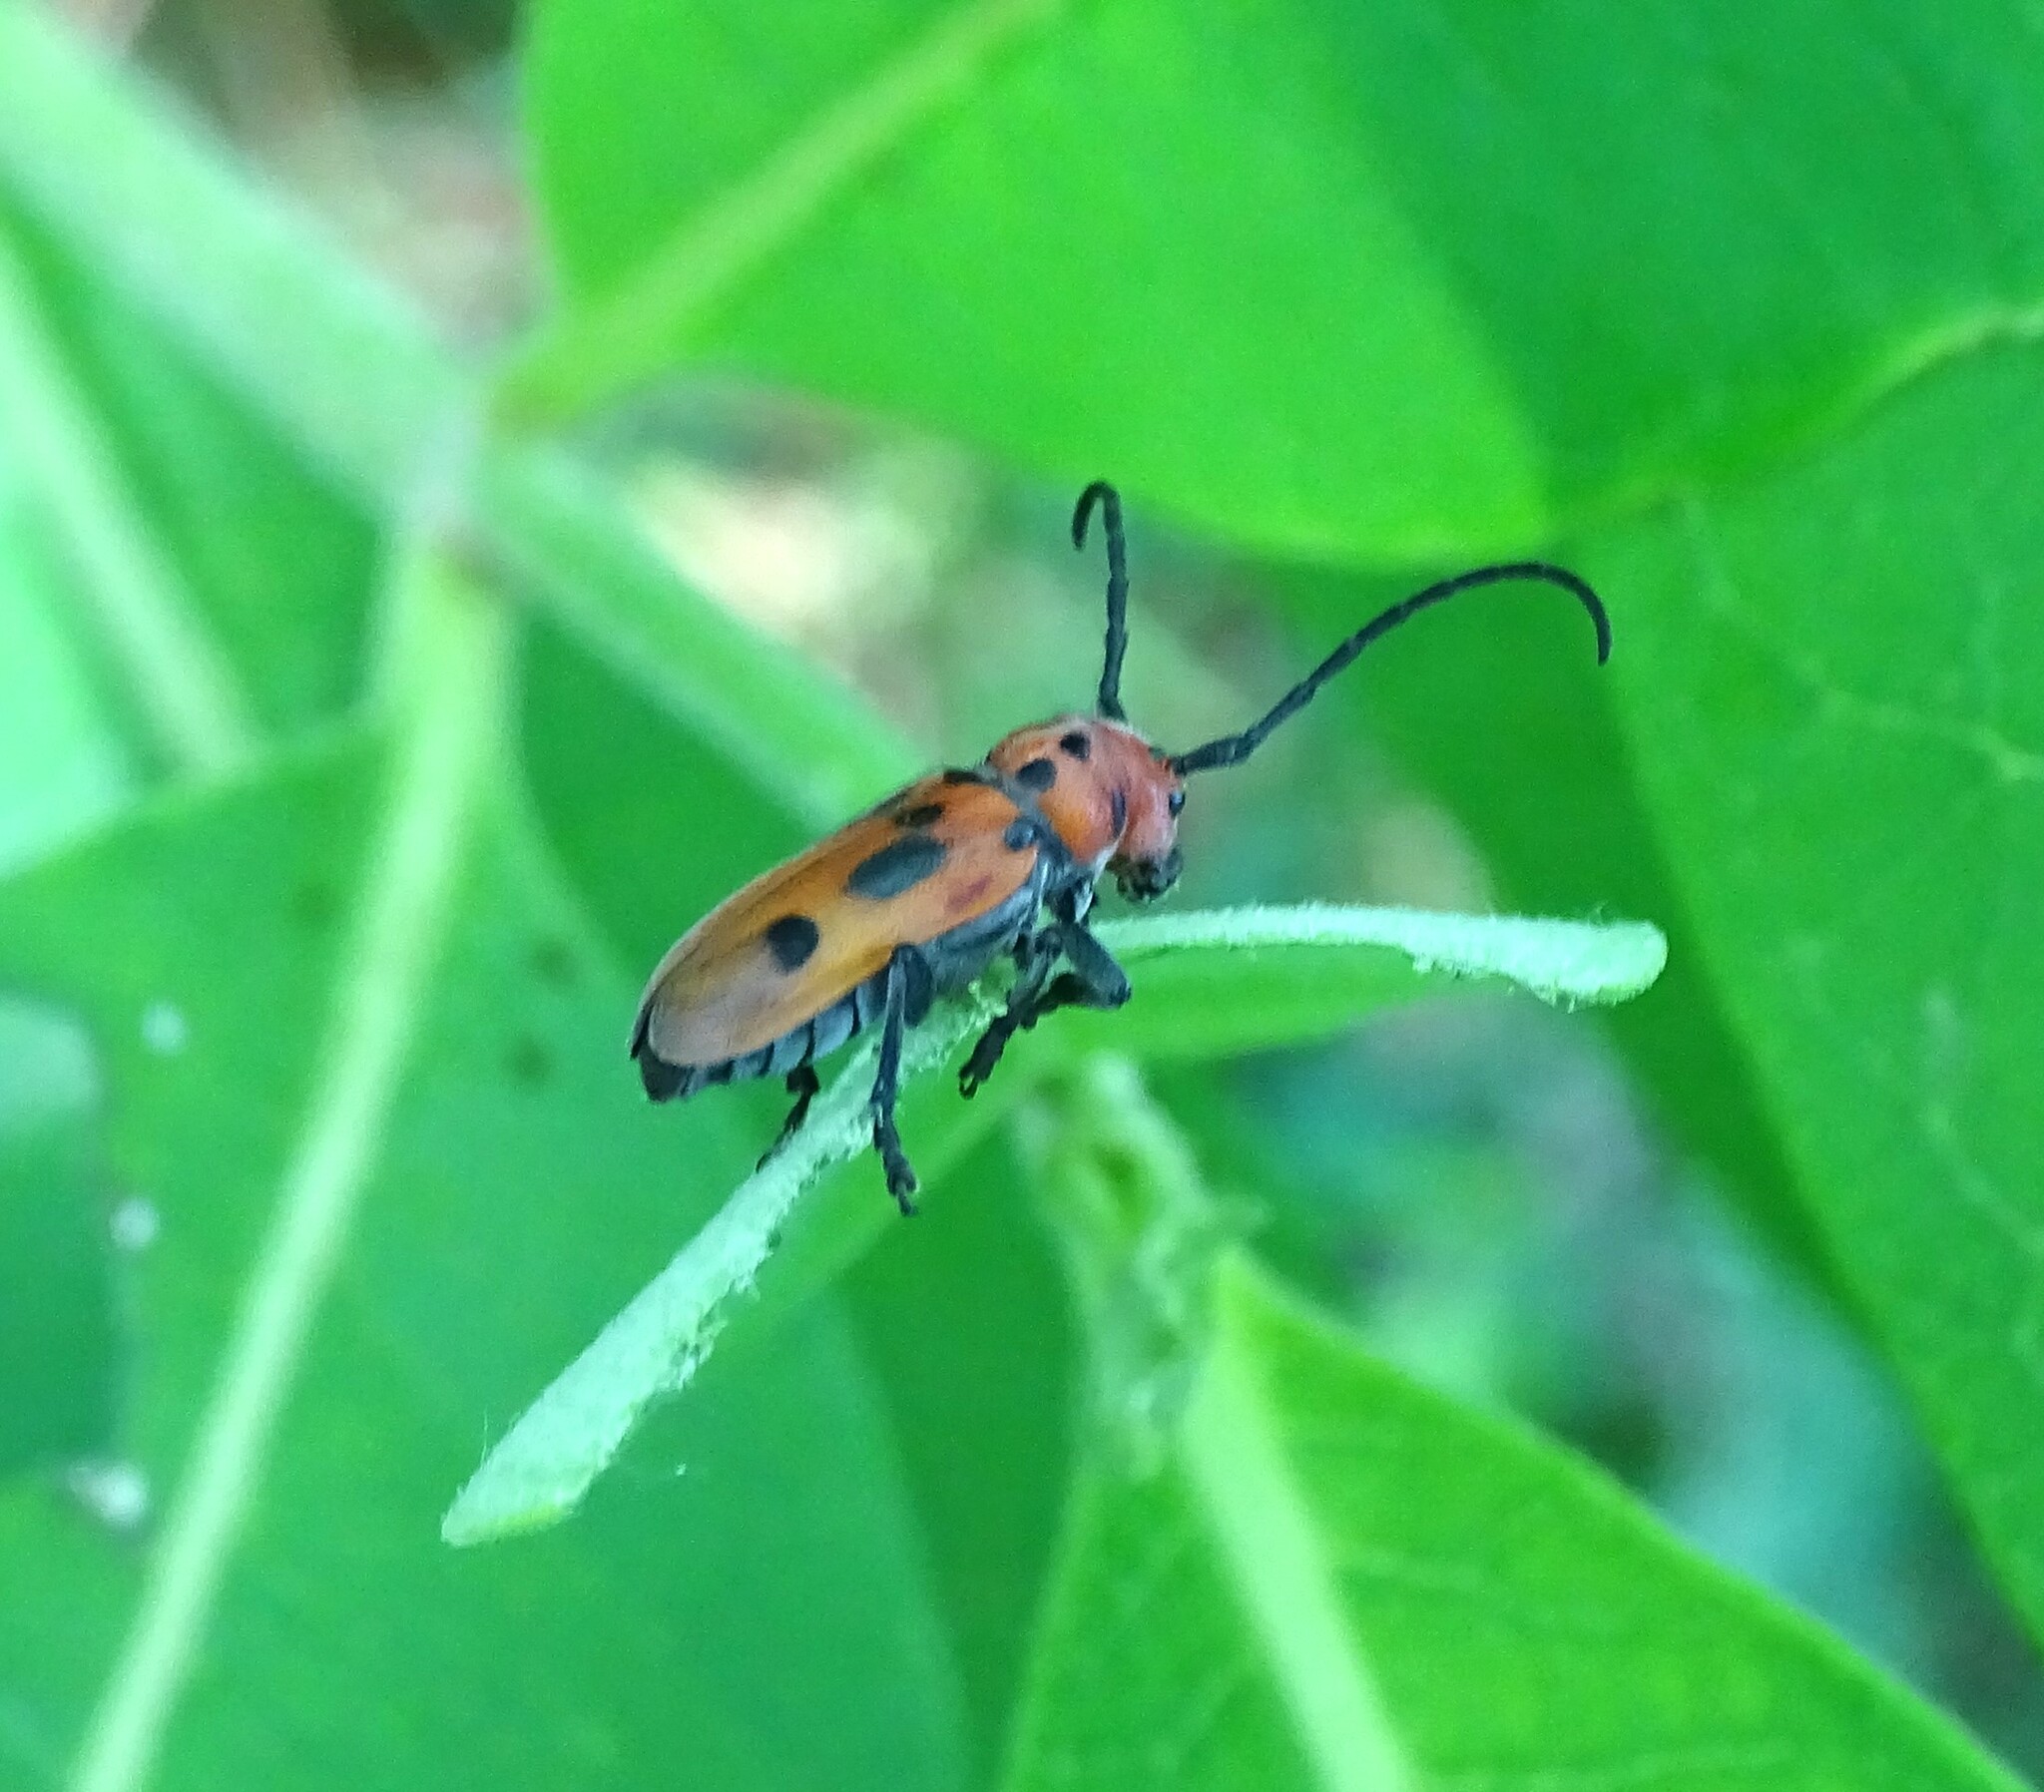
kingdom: Animalia
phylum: Arthropoda
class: Insecta
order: Coleoptera
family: Cerambycidae
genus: Tetraopes
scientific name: Tetraopes tetrophthalmus
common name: Red milkweed beetle
